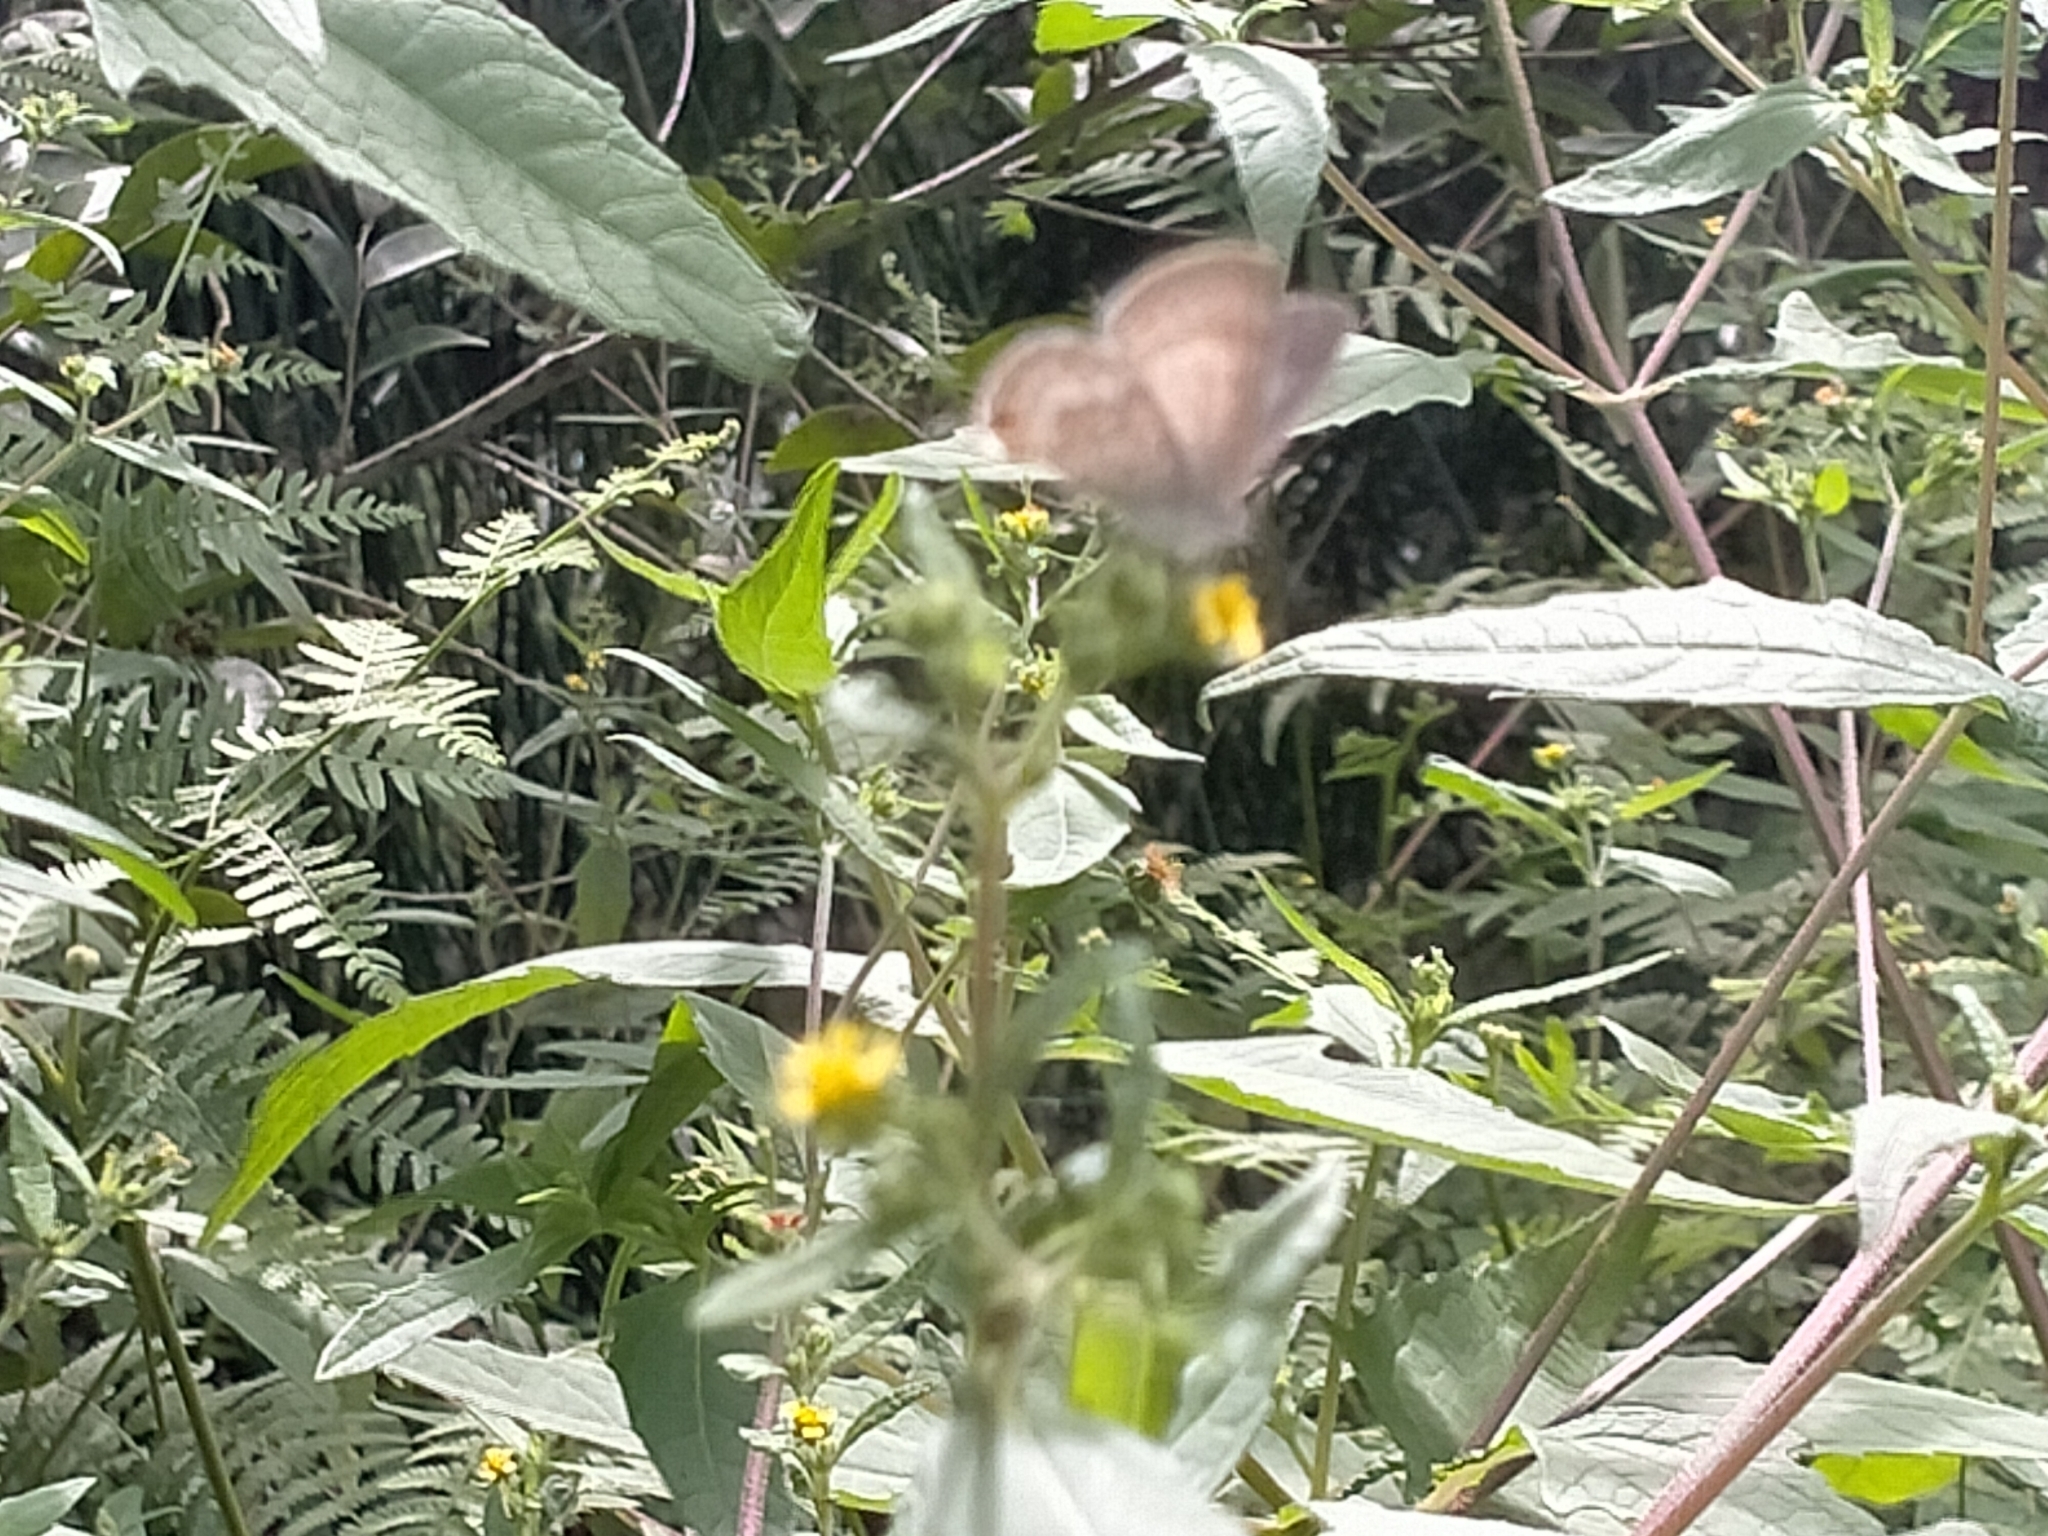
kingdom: Animalia
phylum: Arthropoda
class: Insecta
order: Lepidoptera
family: Lycaenidae
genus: Catopyrops
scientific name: Catopyrops florinda
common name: Speckled line-blue
